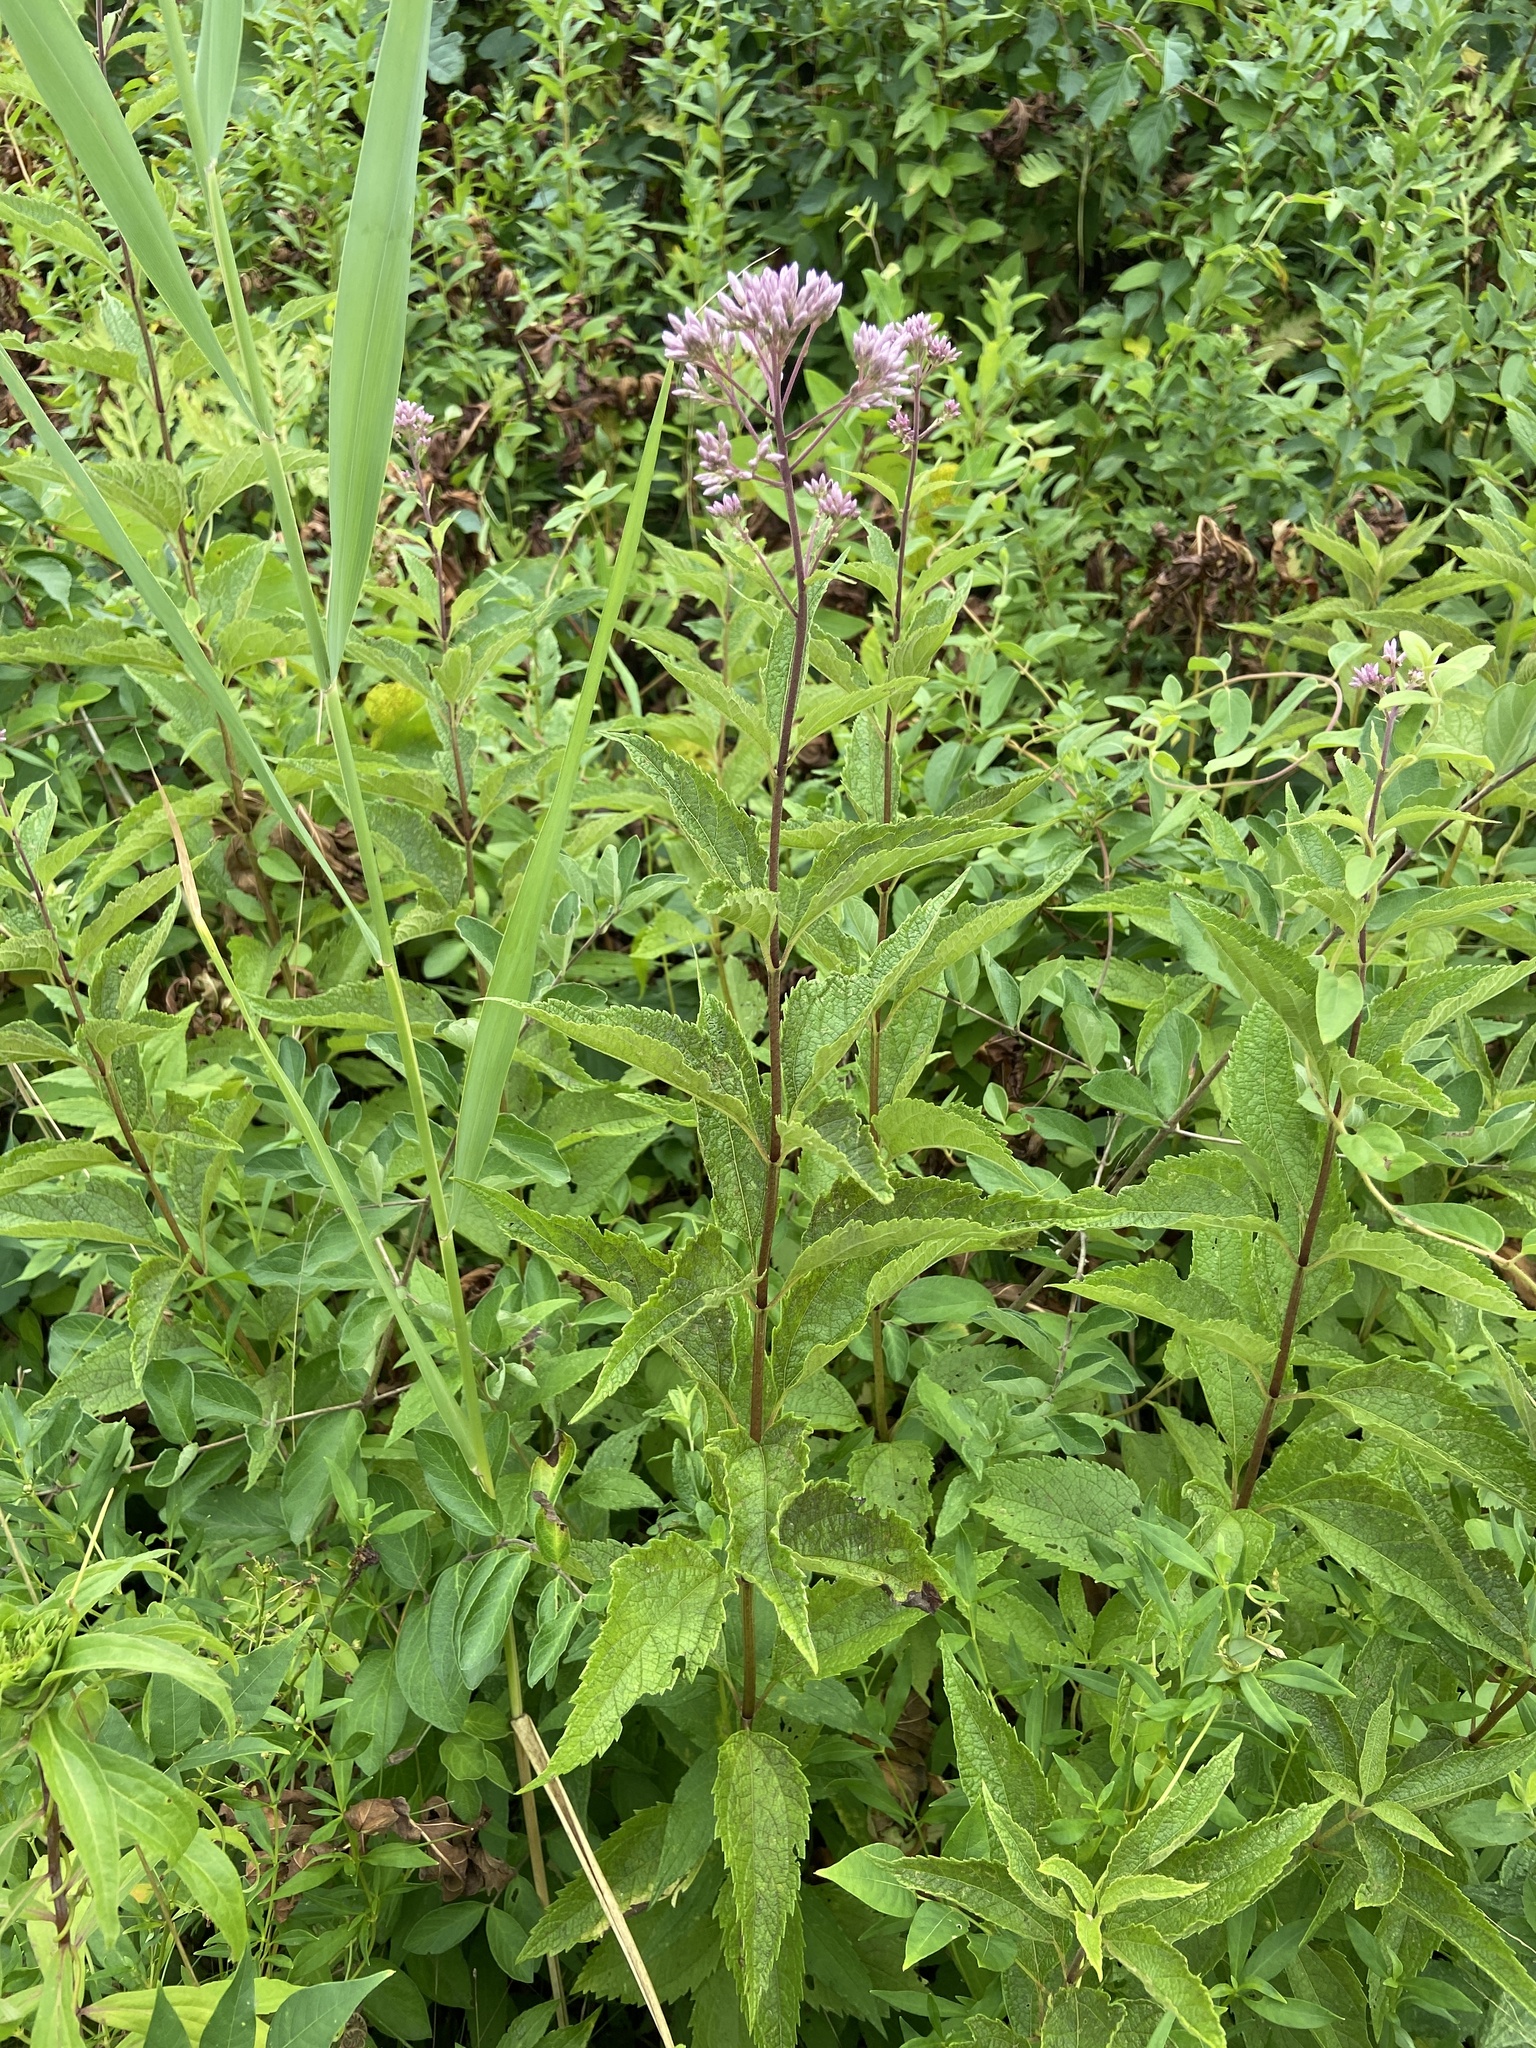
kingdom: Plantae
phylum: Tracheophyta
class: Magnoliopsida
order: Asterales
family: Asteraceae
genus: Eutrochium
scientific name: Eutrochium dubium
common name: Coastal plain joe pye weed
